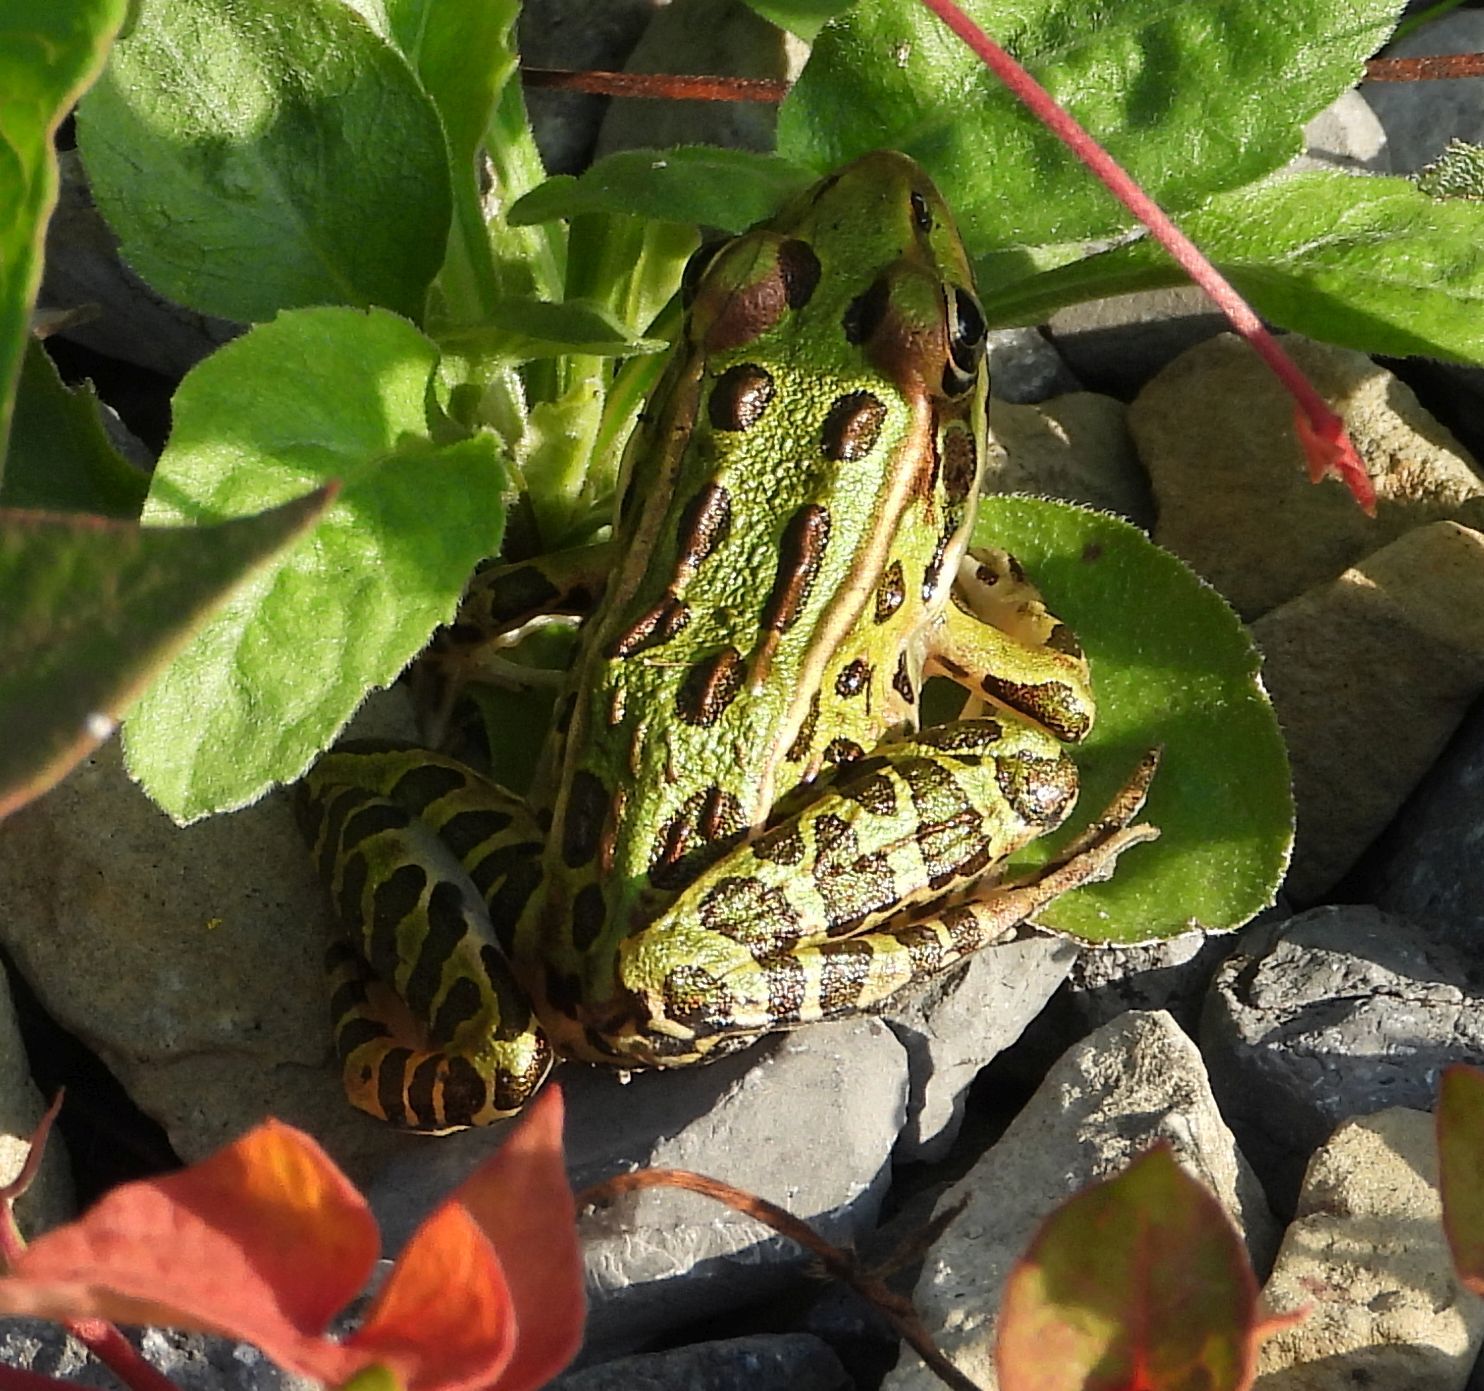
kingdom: Animalia
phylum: Chordata
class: Amphibia
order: Anura
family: Ranidae
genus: Lithobates
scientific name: Lithobates pipiens
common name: Northern leopard frog
